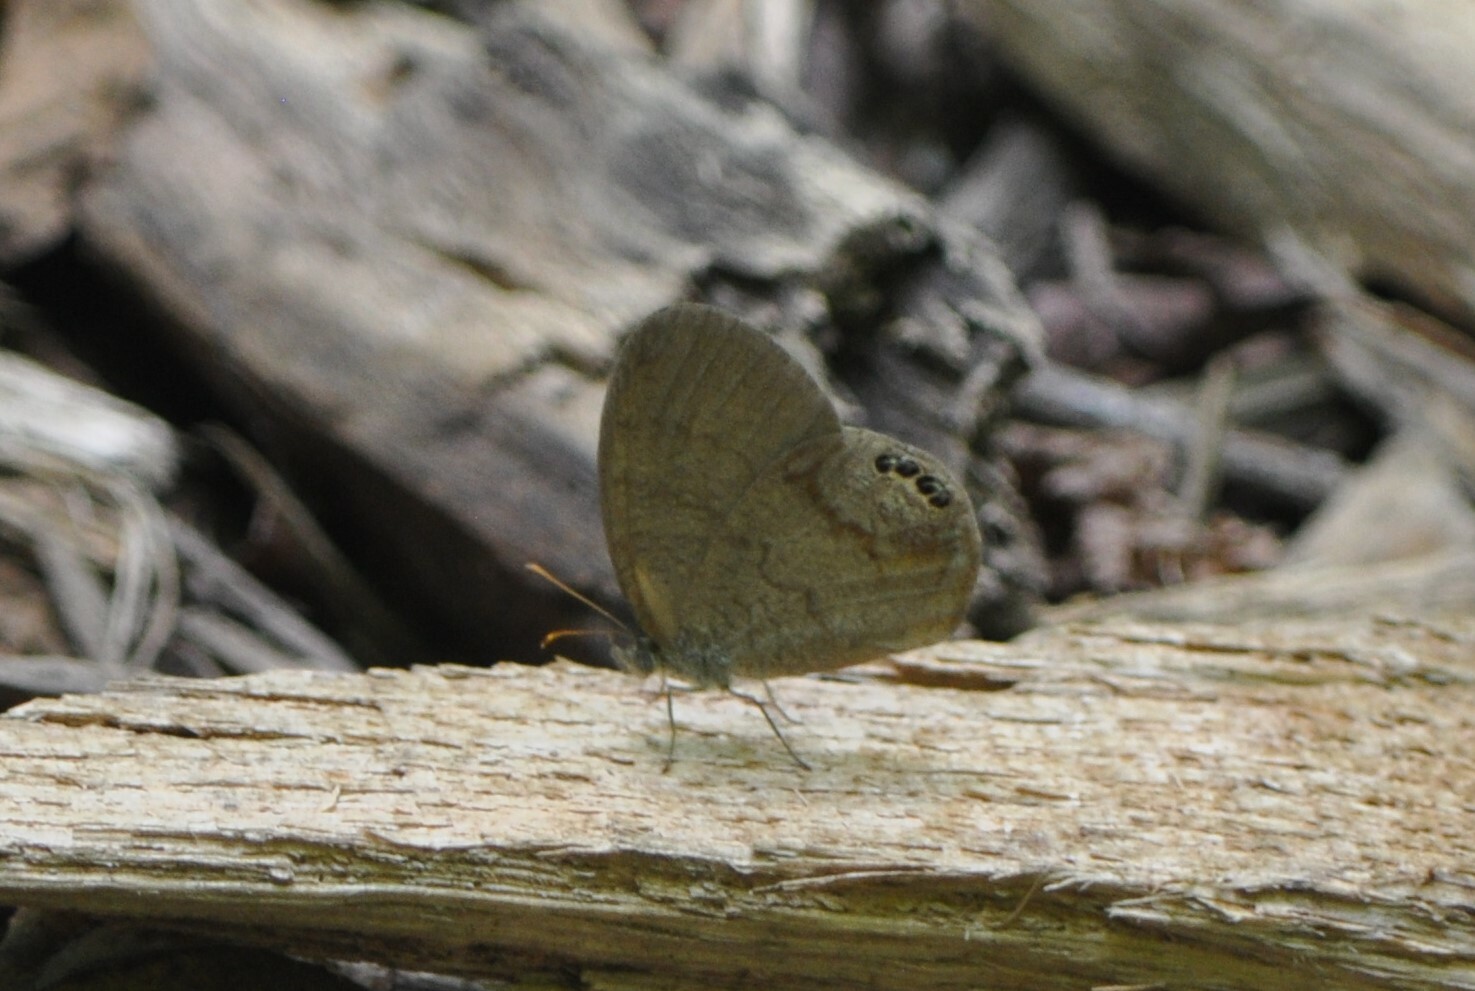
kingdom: Animalia
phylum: Arthropoda
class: Insecta
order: Lepidoptera
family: Nymphalidae
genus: Euptychia
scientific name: Euptychia cornelius
